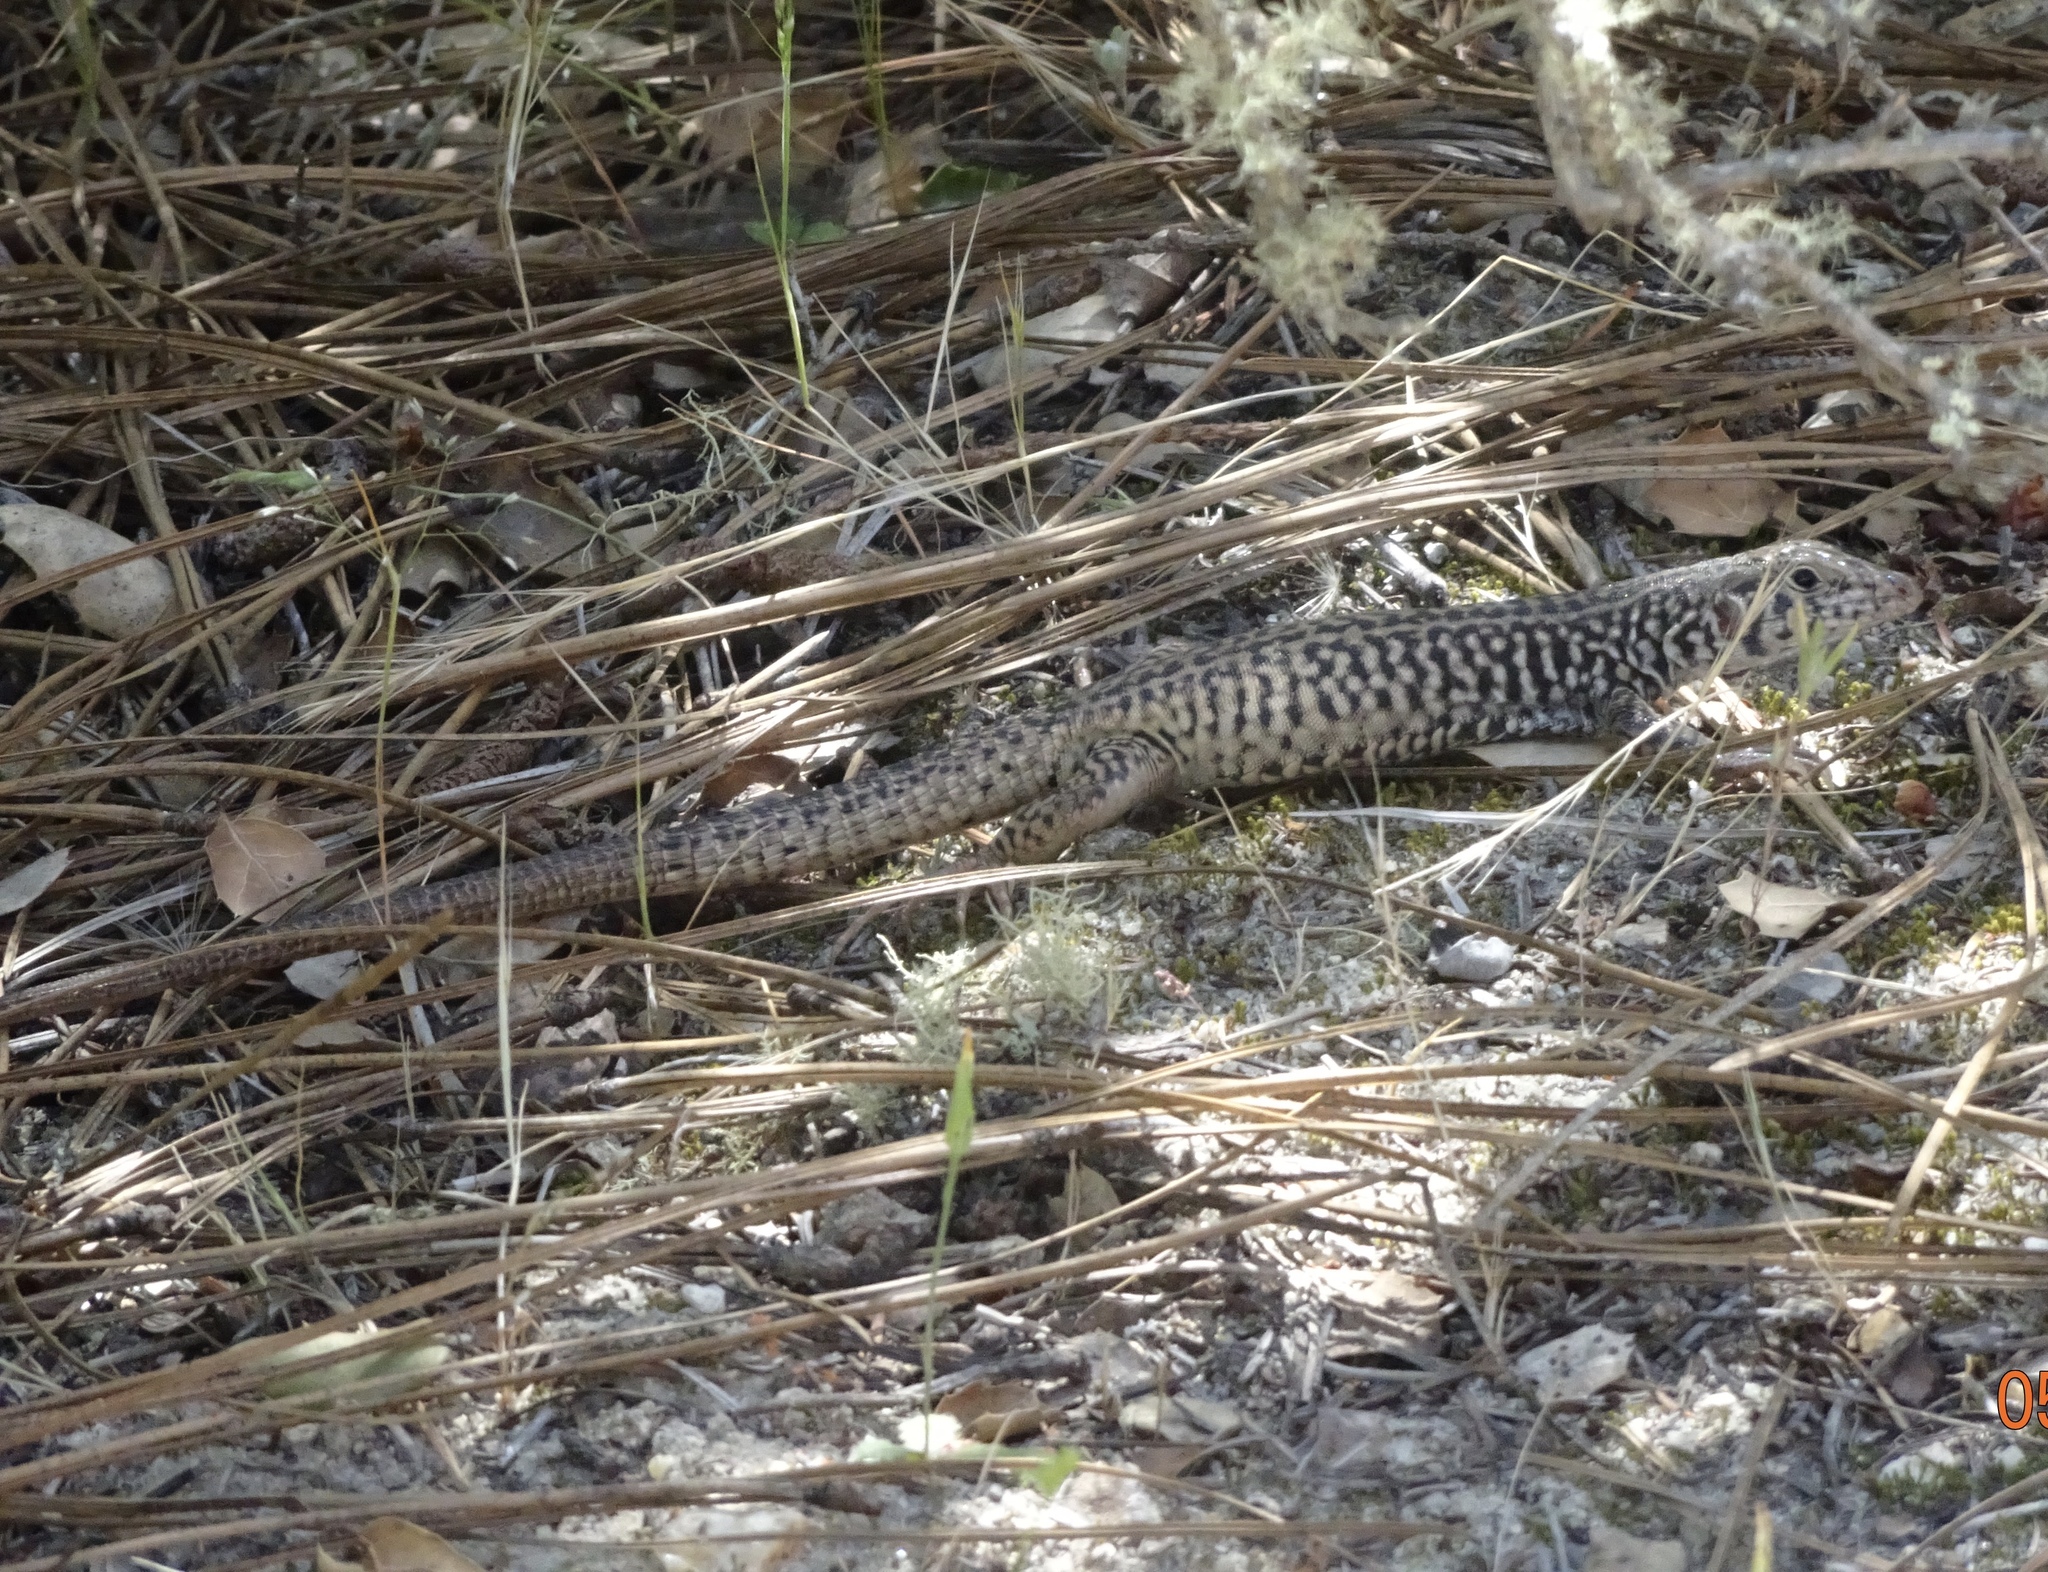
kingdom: Animalia
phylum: Chordata
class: Squamata
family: Teiidae
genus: Aspidoscelis
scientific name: Aspidoscelis tigris
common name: Tiger whiptail
